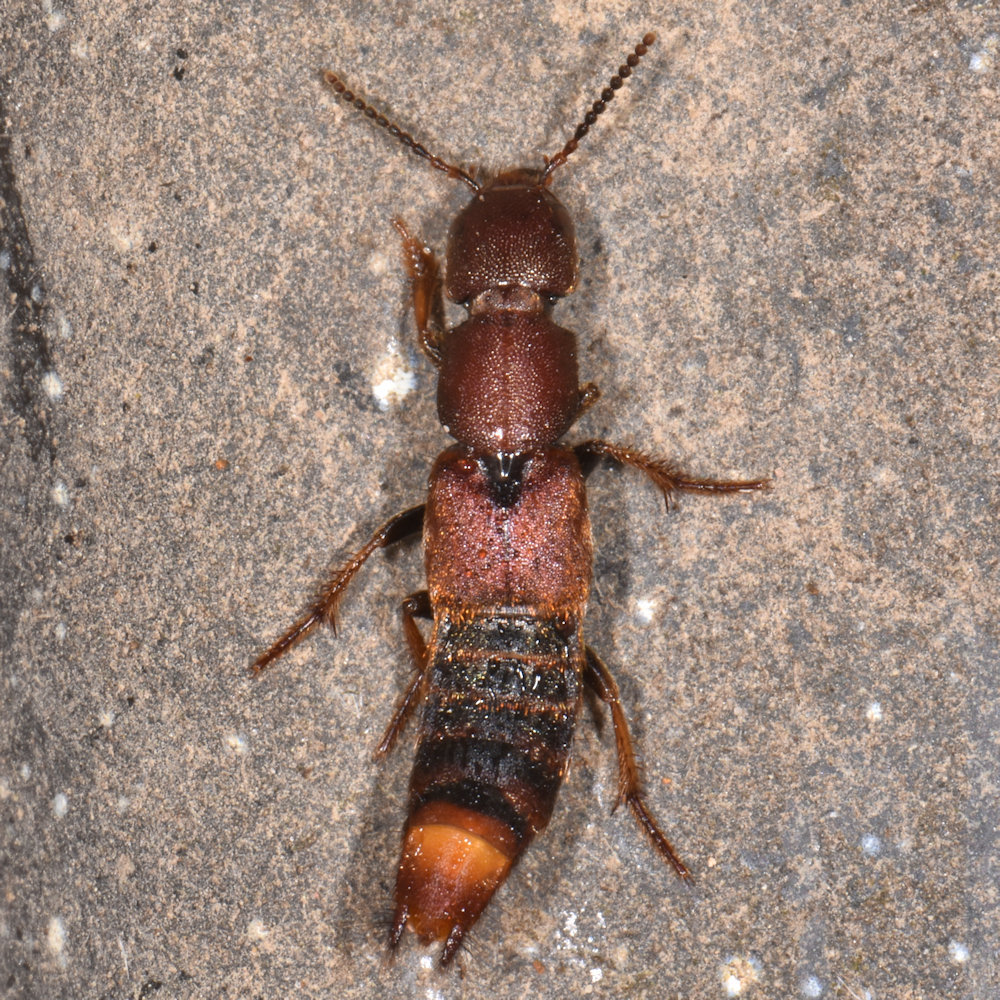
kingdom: Animalia
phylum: Arthropoda
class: Insecta
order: Coleoptera
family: Staphylinidae
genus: Platydracus
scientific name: Platydracus cinnamopterus
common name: Cinnamon rove beetle
